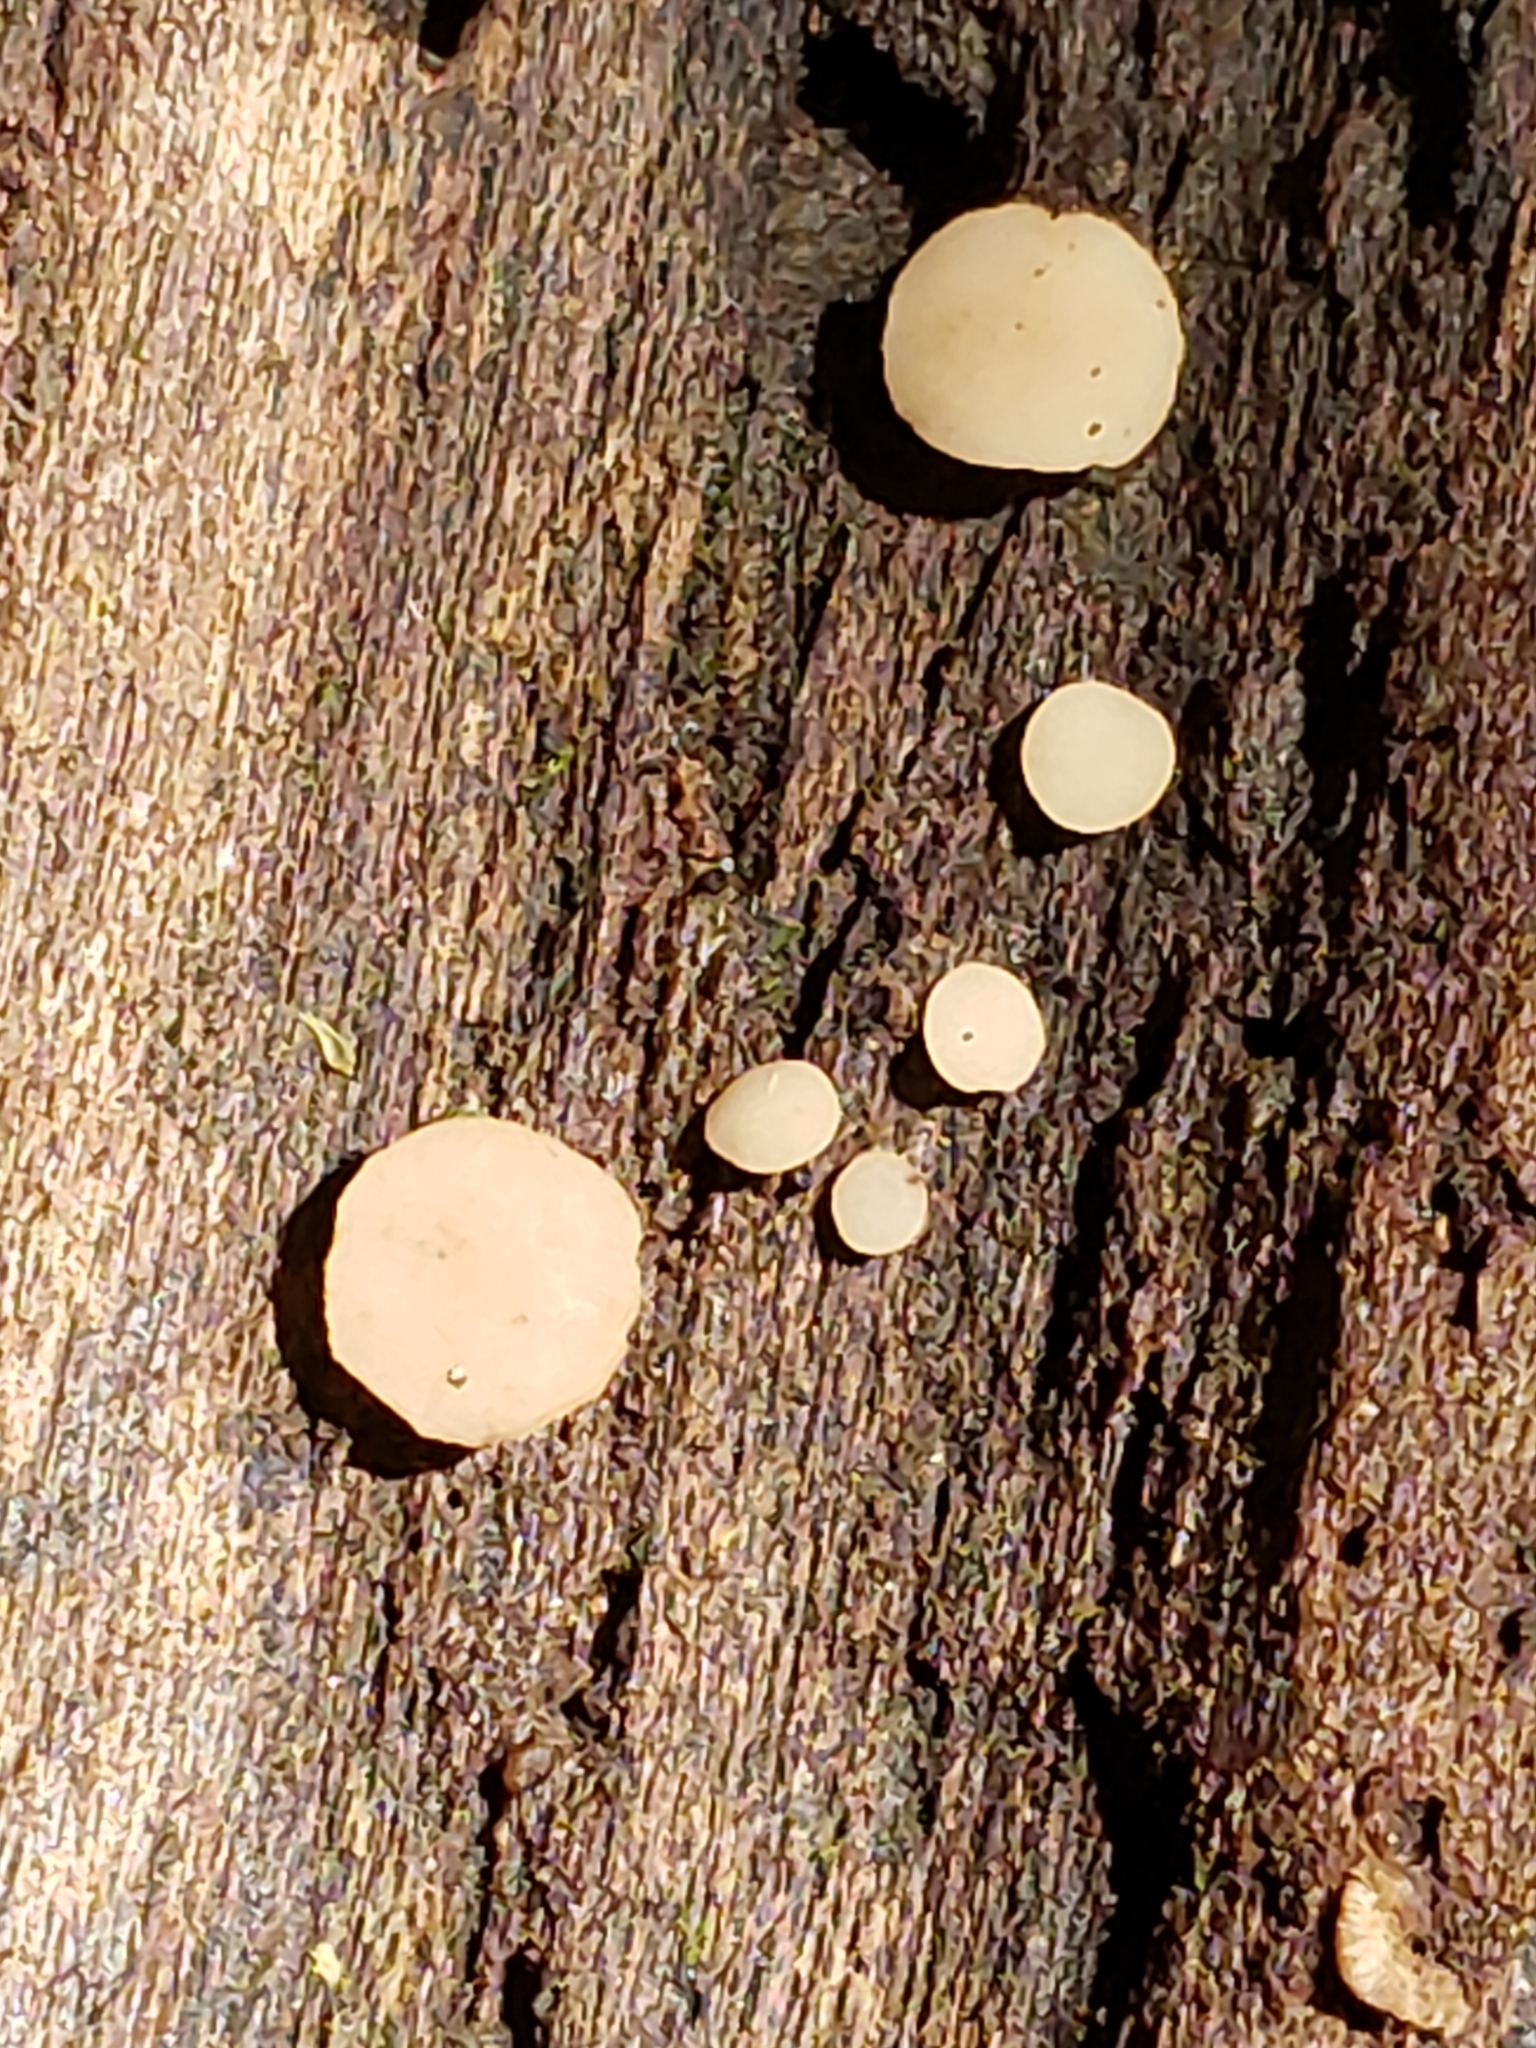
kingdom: Fungi
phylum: Ascomycota
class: Leotiomycetes
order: Helotiales
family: Helotiaceae
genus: Tatraea
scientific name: Tatraea macrospora
